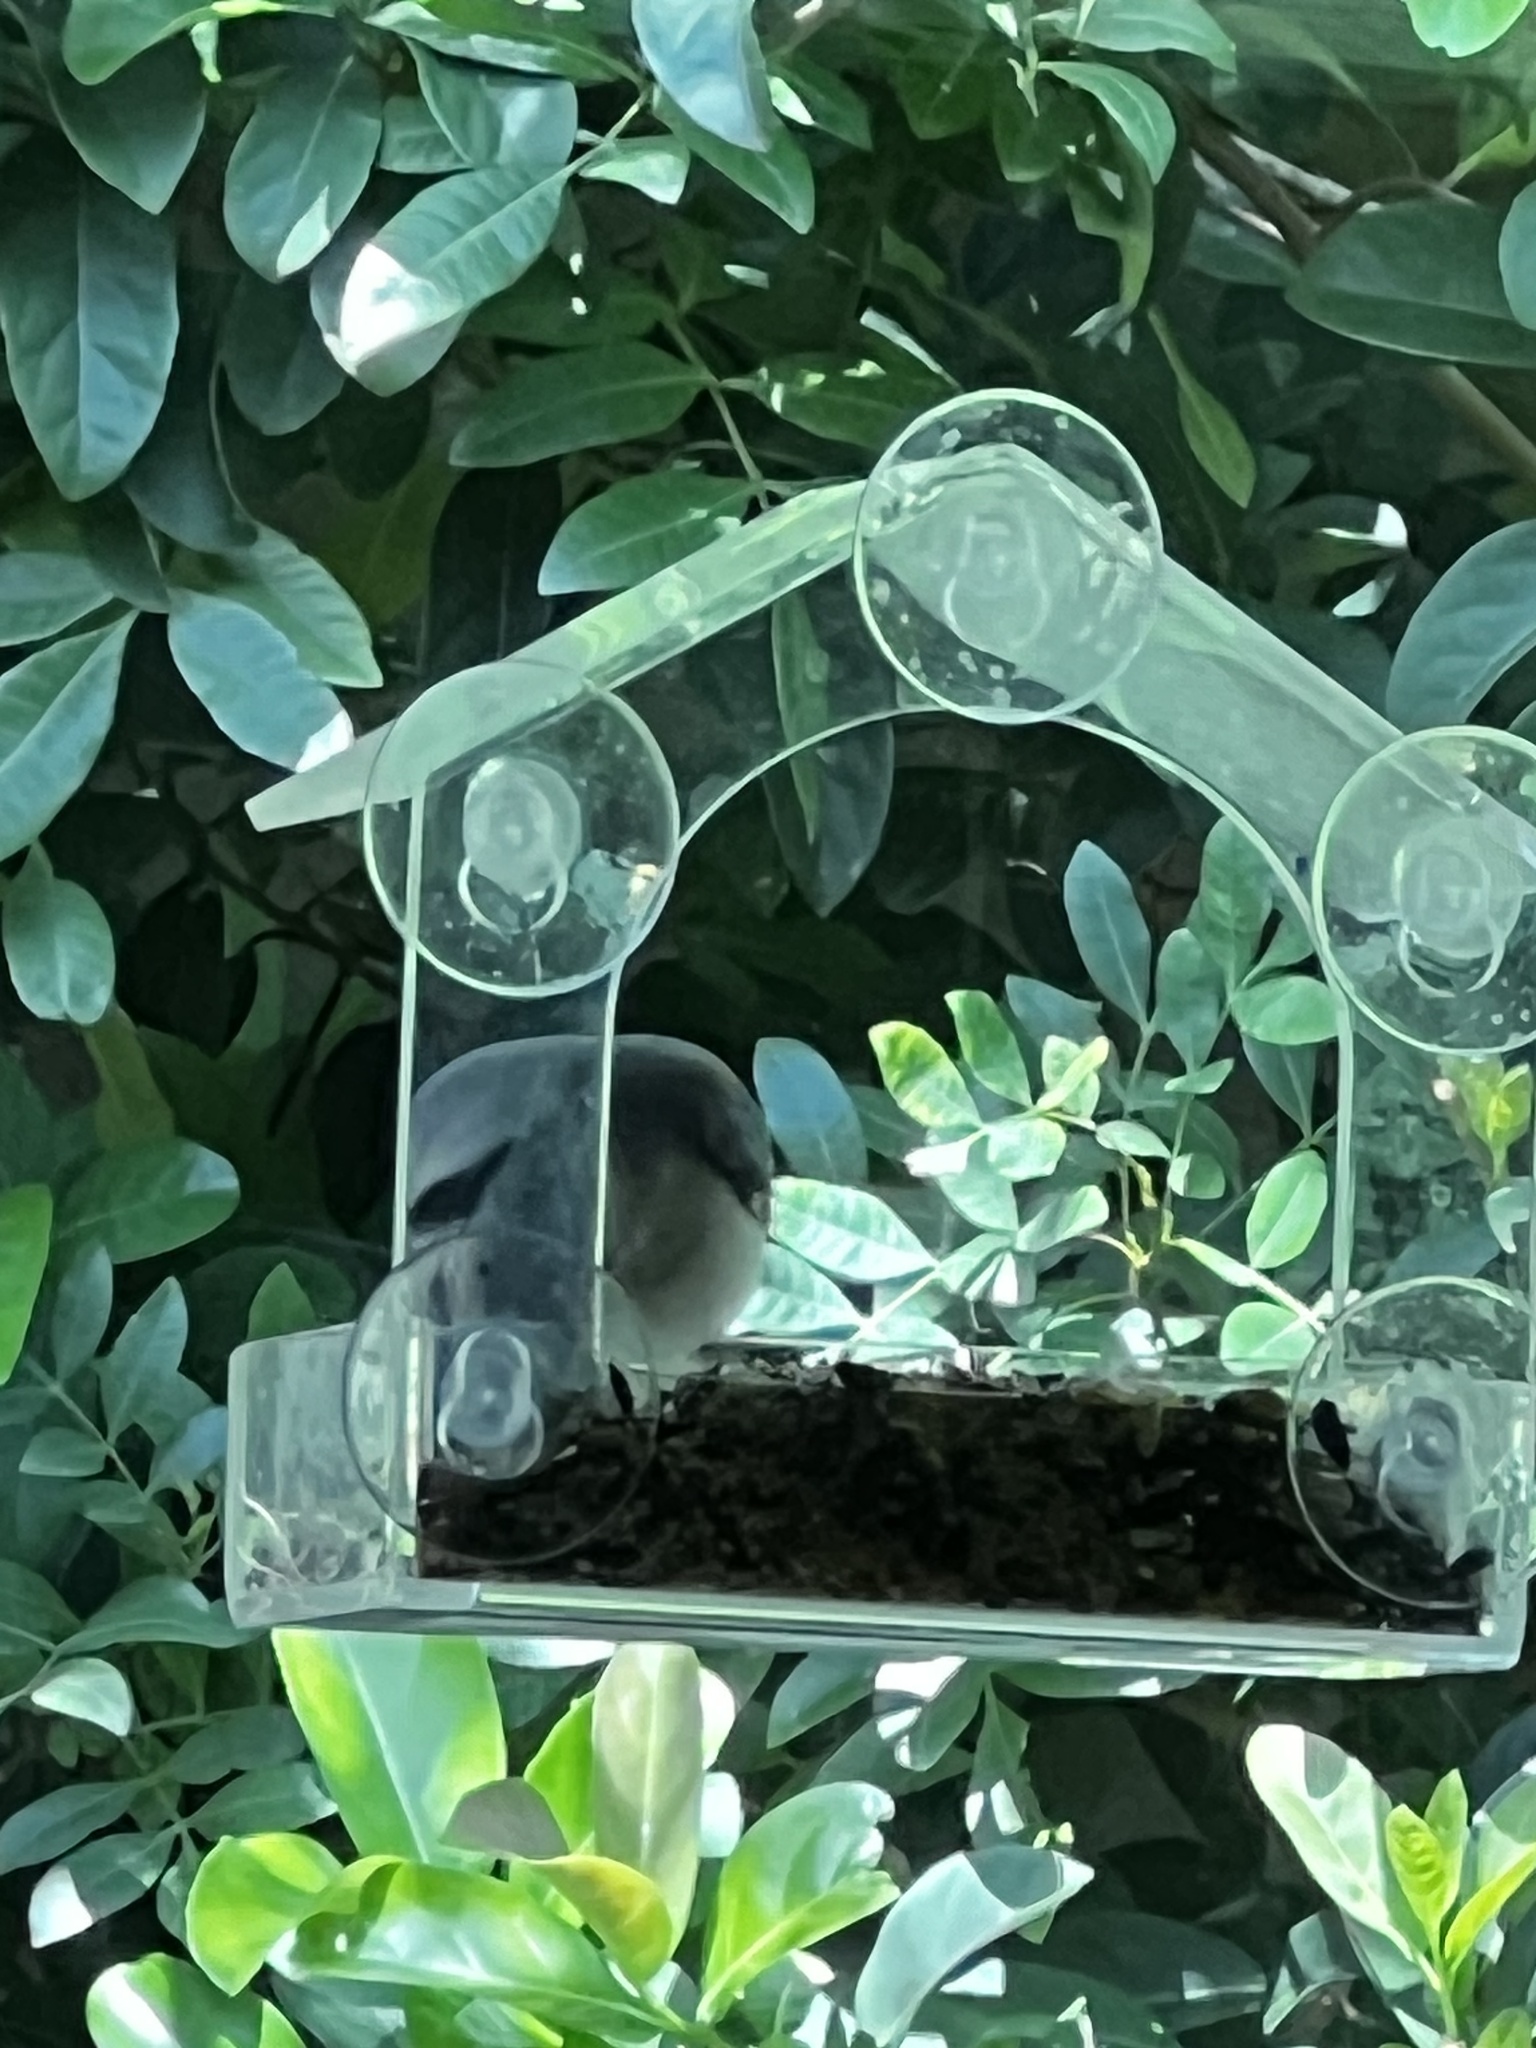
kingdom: Animalia
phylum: Chordata
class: Aves
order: Passeriformes
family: Corvidae
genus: Cyanocitta
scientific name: Cyanocitta cristata
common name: Blue jay
